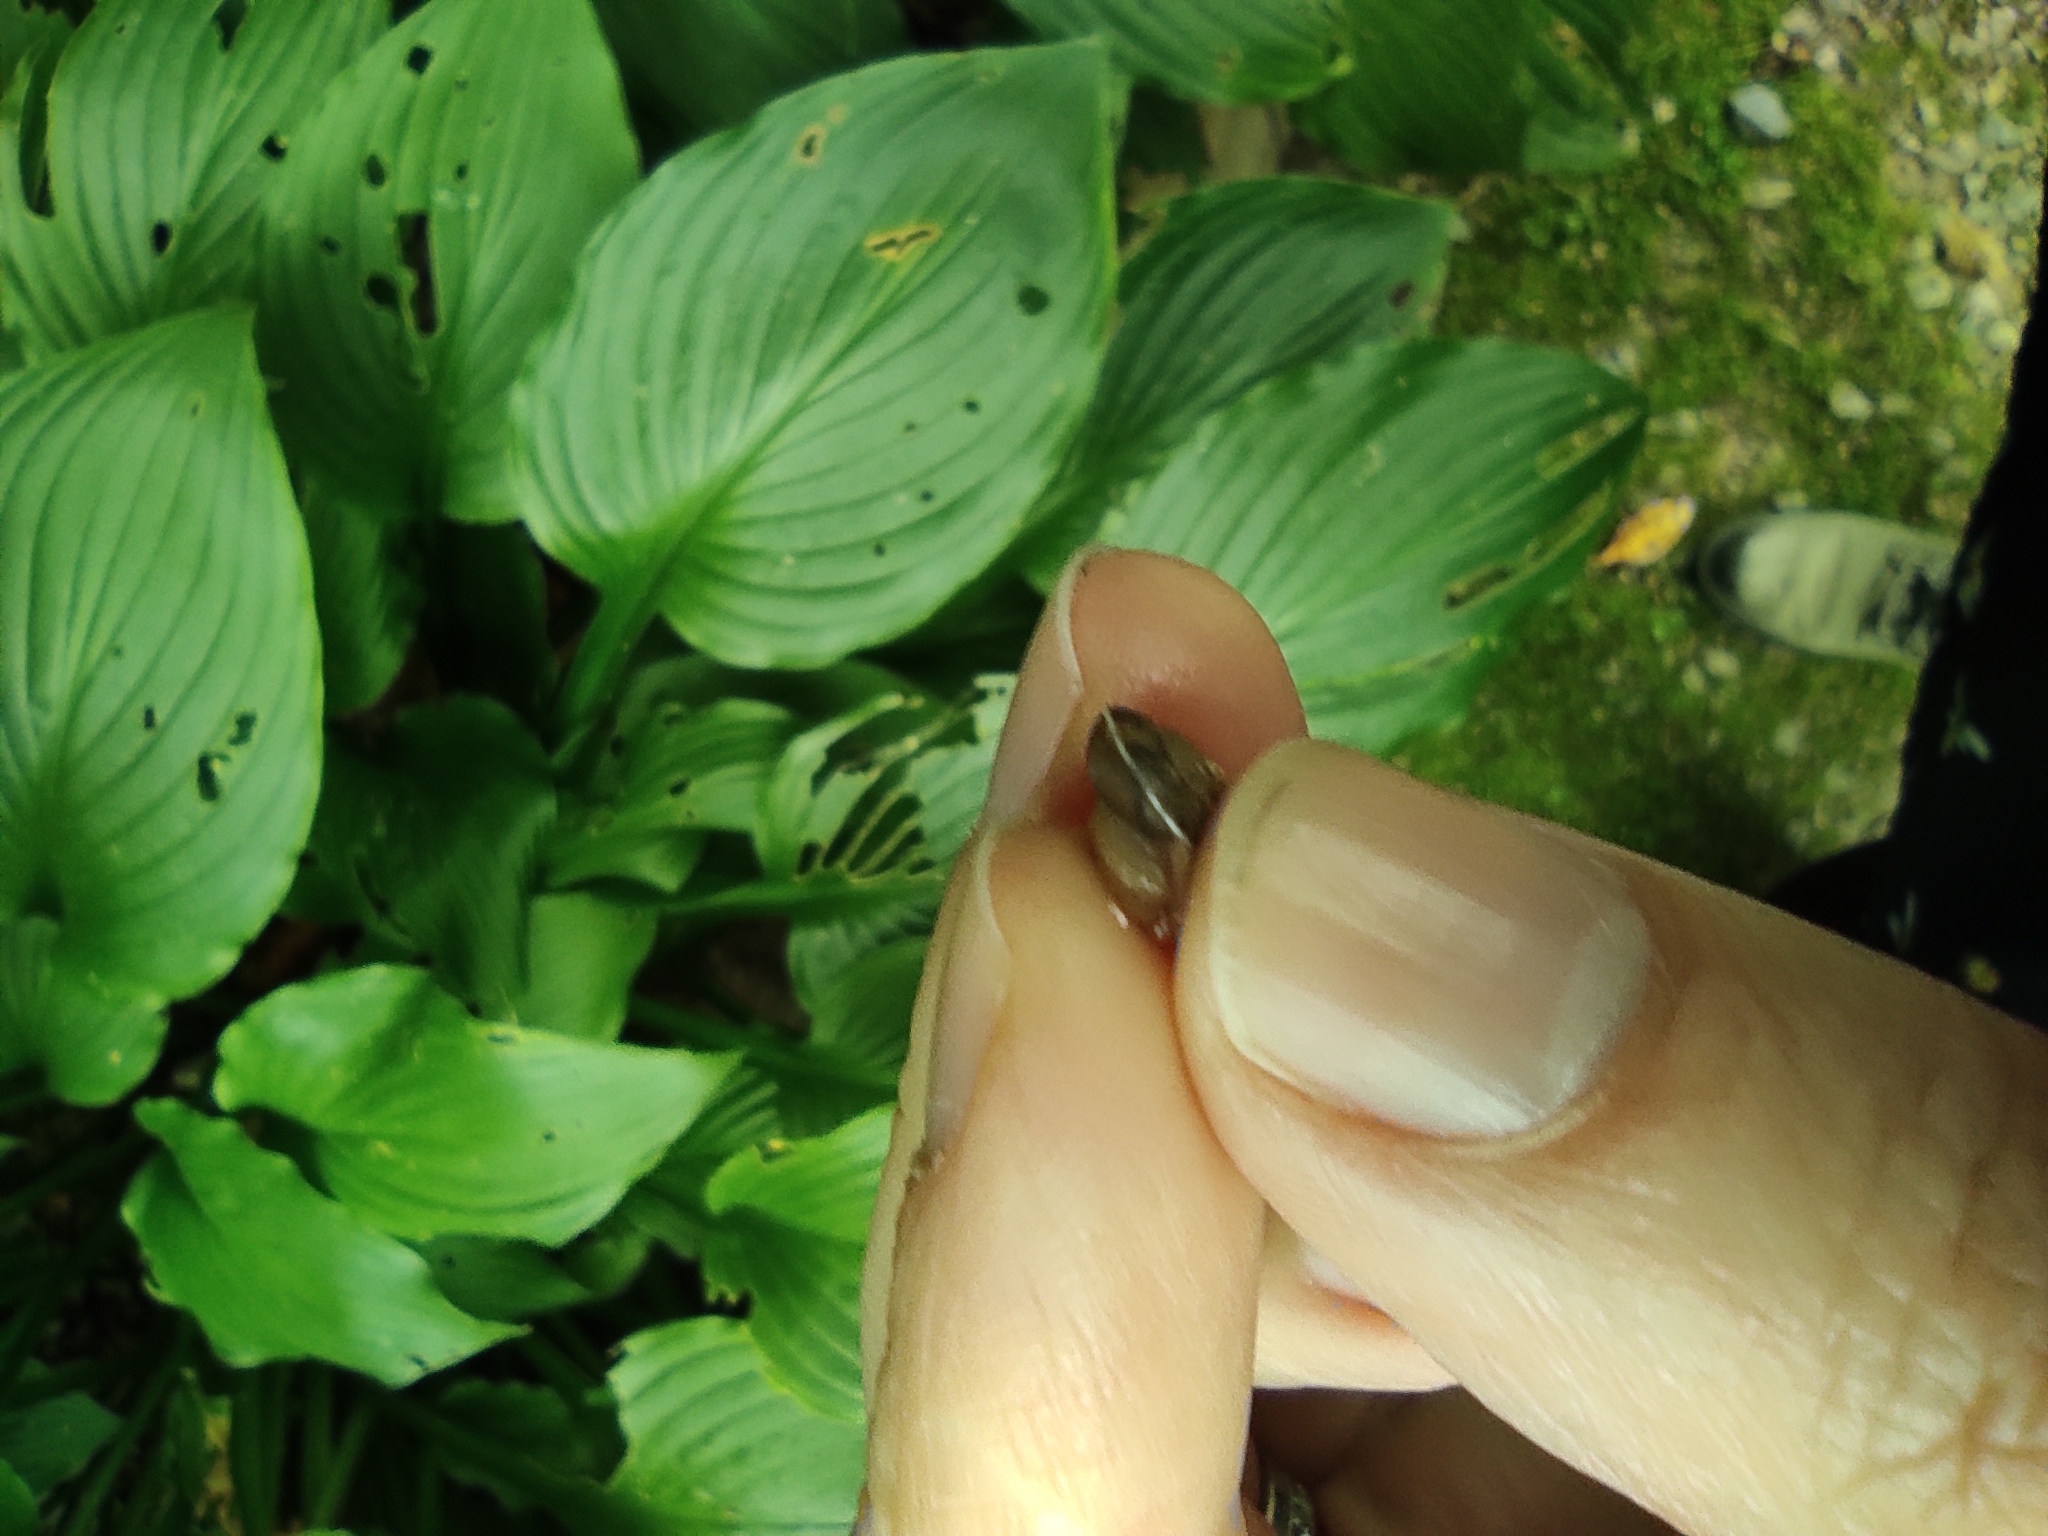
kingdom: Animalia
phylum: Mollusca
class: Gastropoda
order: Stylommatophora
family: Hygromiidae
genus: Hygromia
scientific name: Hygromia cinctella
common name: Girdled snail
